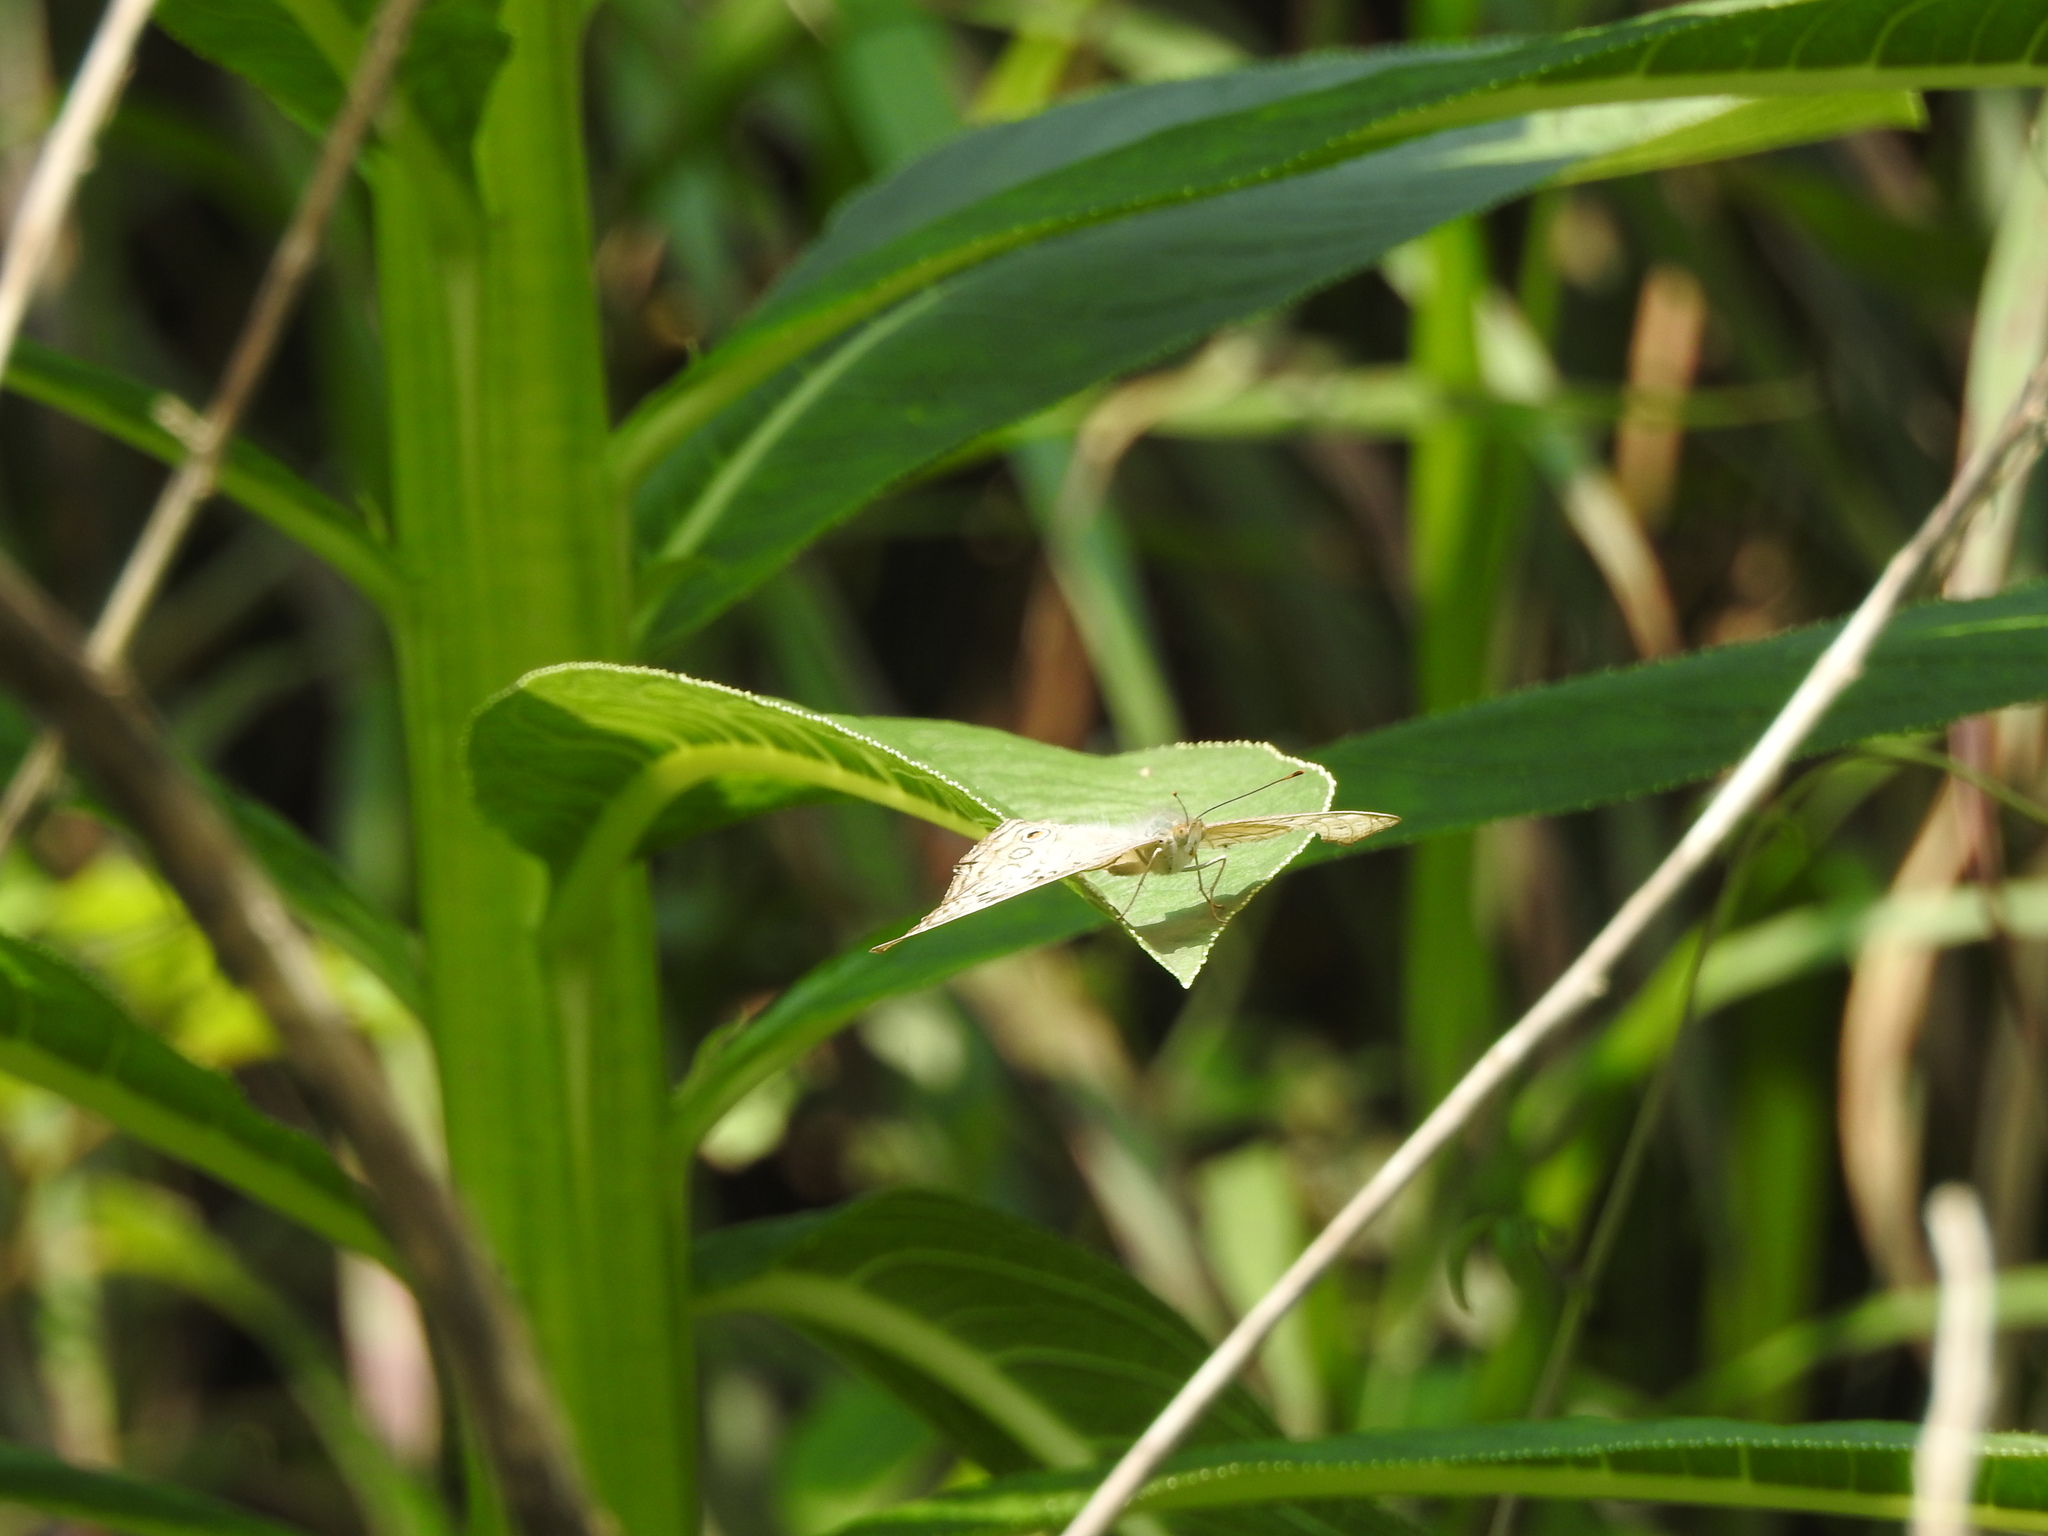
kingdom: Animalia
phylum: Arthropoda
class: Insecta
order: Lepidoptera
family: Nymphalidae
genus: Junonia
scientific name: Junonia atlites
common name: Grey pansy
